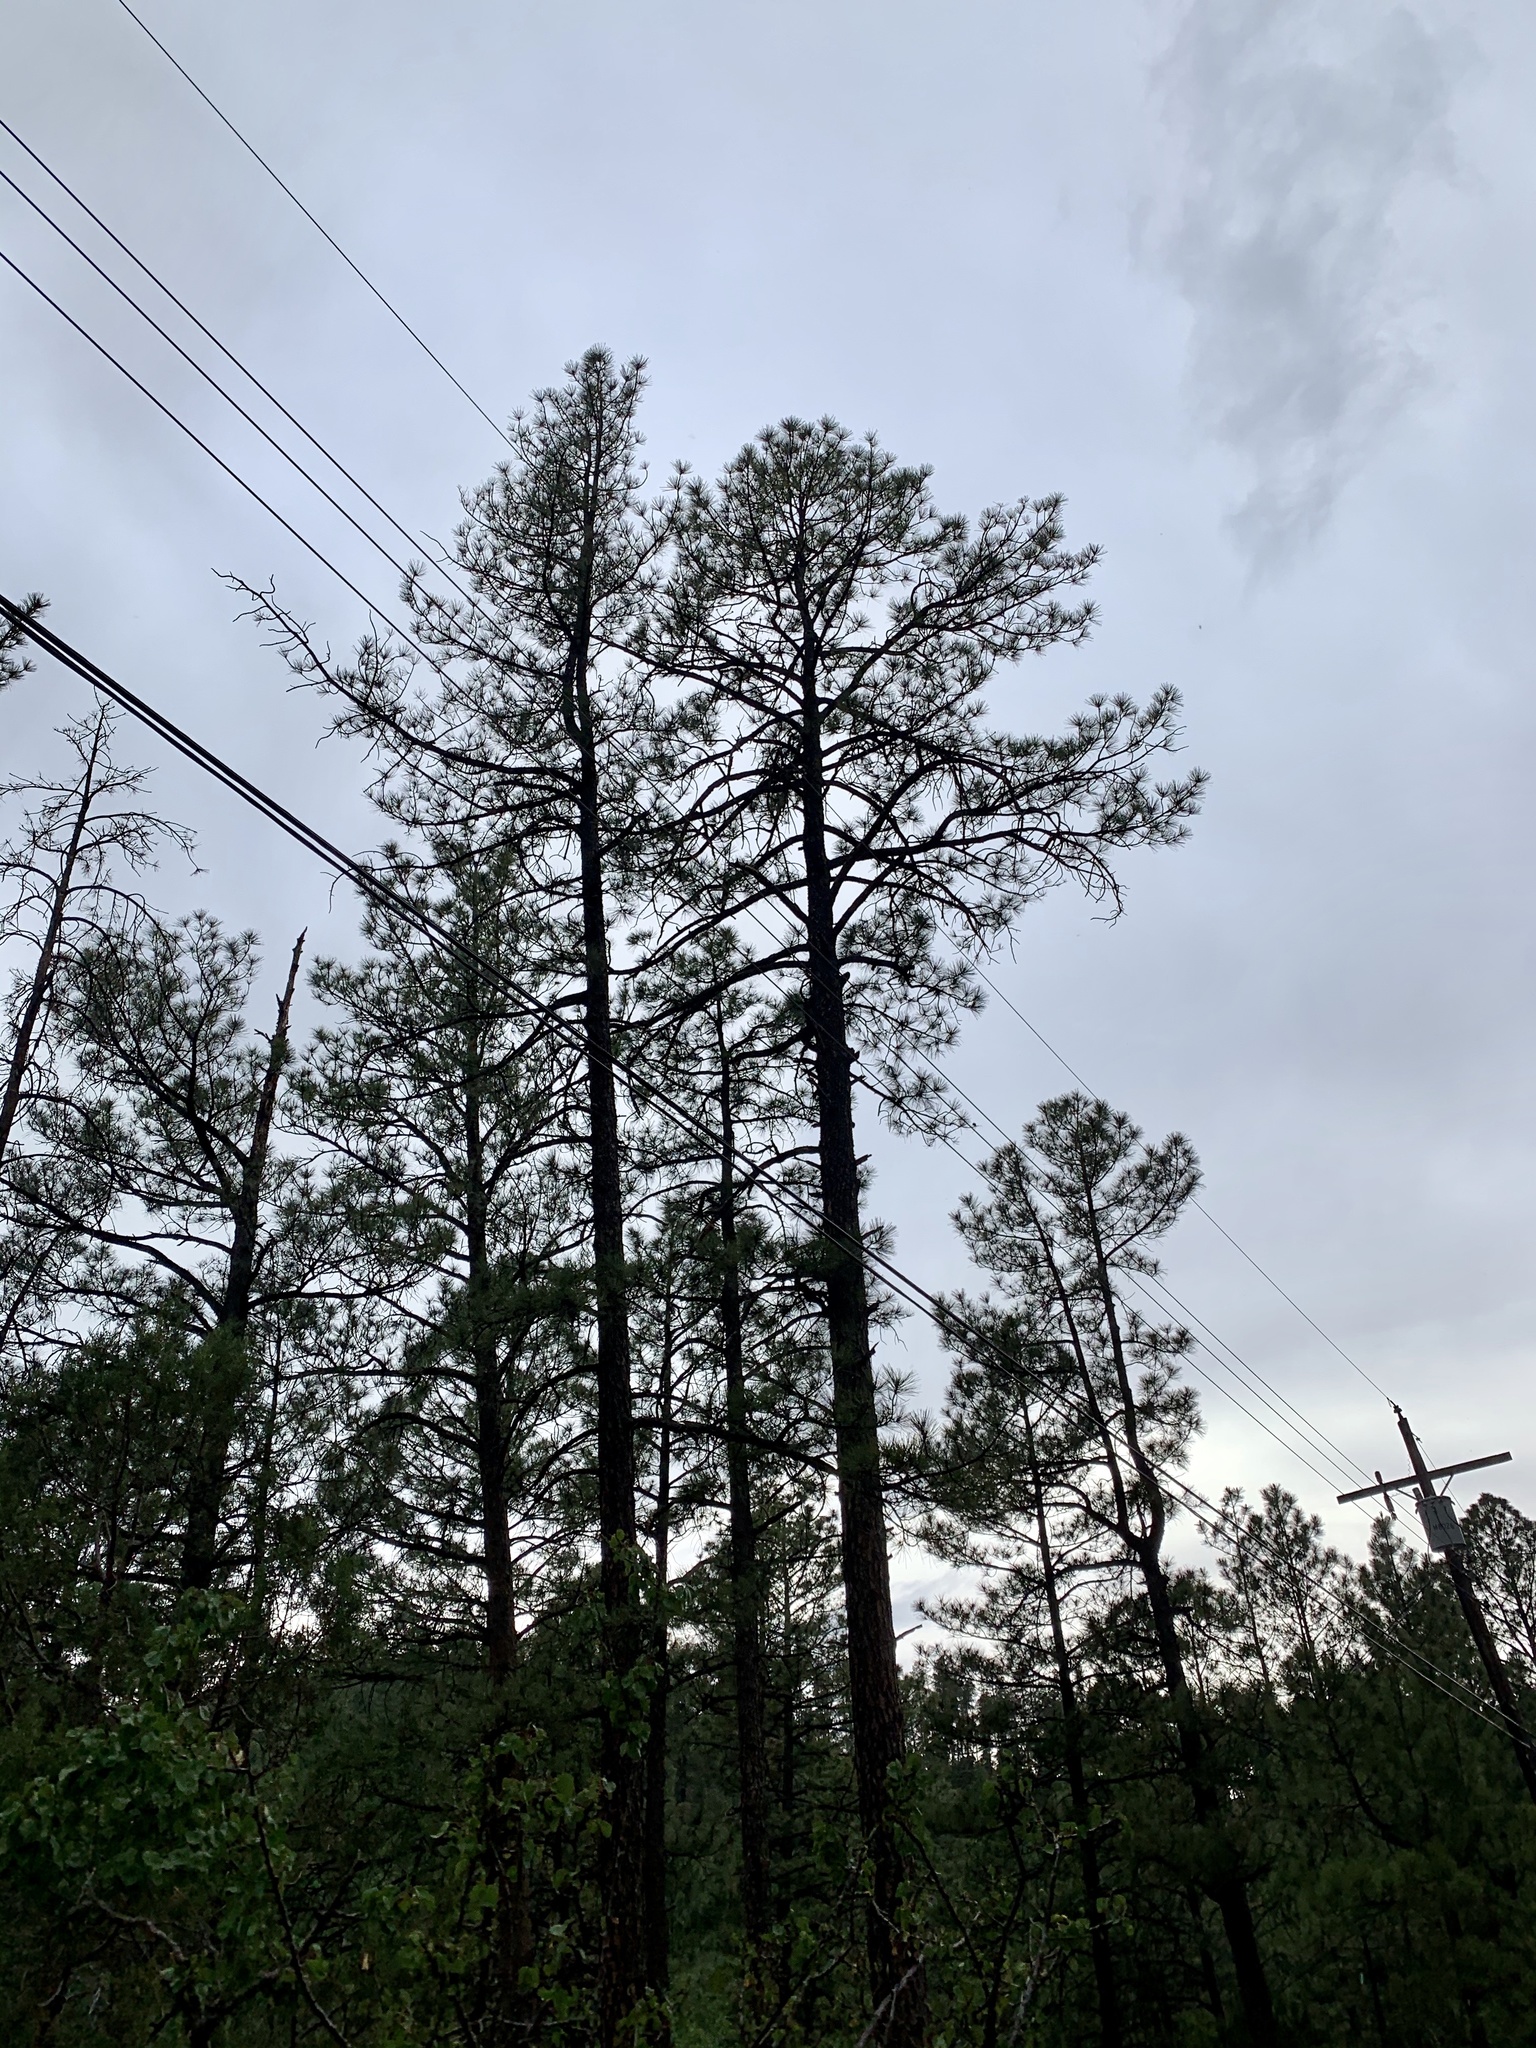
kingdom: Plantae
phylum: Tracheophyta
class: Pinopsida
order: Pinales
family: Pinaceae
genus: Pinus
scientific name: Pinus ponderosa
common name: Western yellow-pine
